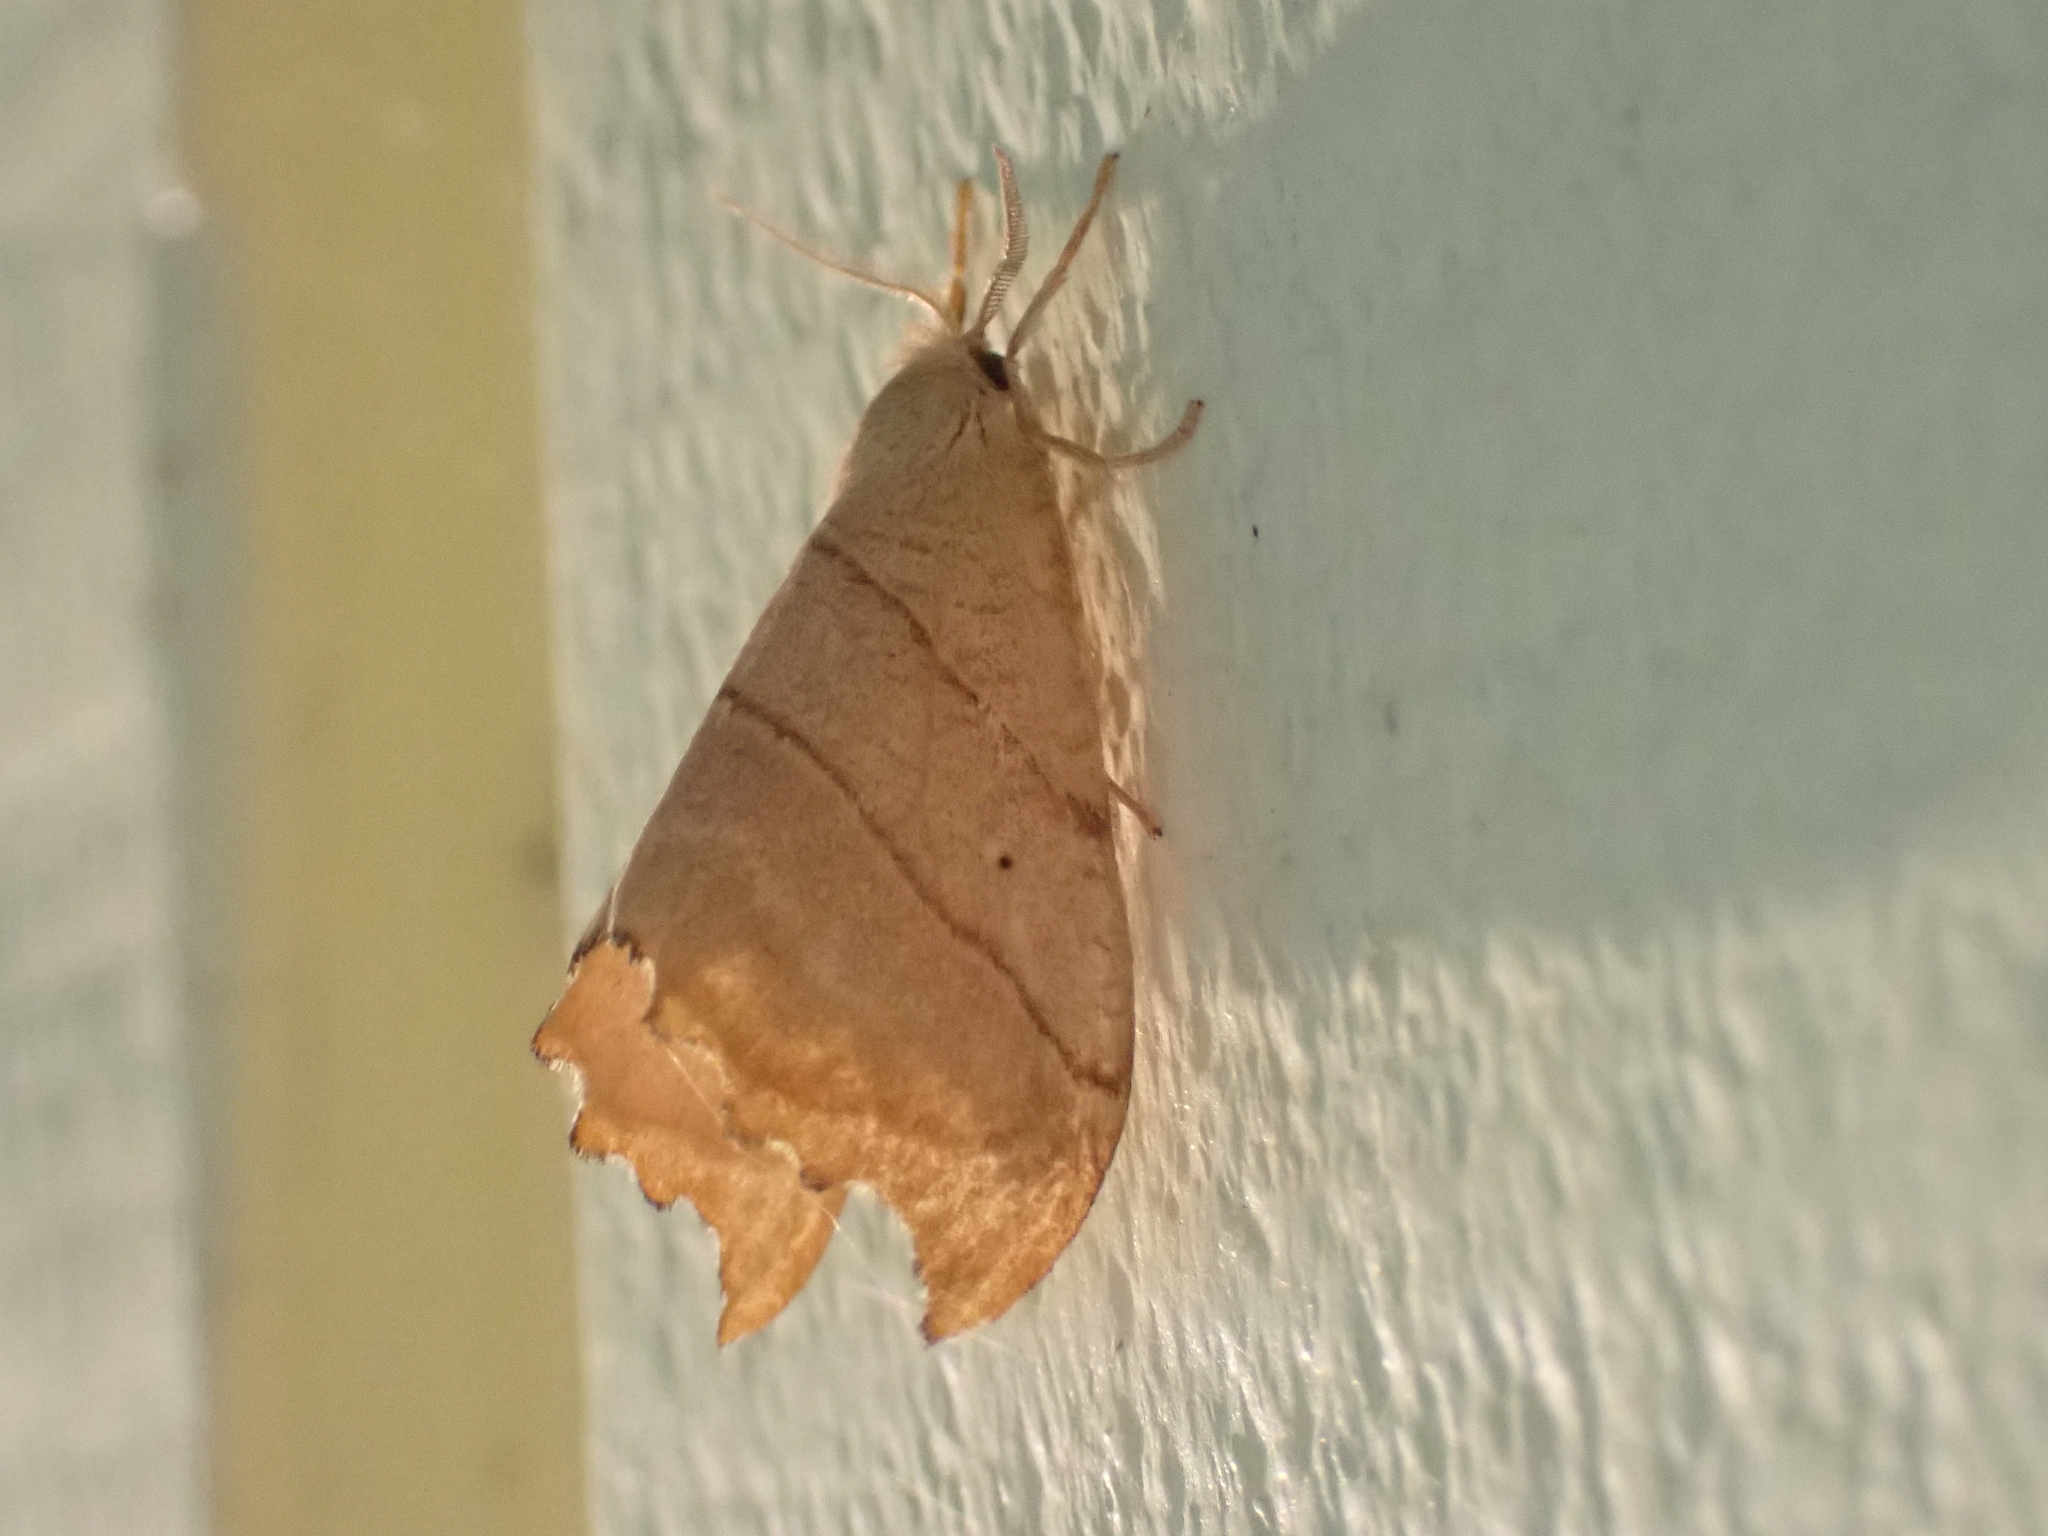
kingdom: Animalia
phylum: Arthropoda
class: Insecta
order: Lepidoptera
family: Drepanidae
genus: Falcaria
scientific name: Falcaria bilineata
